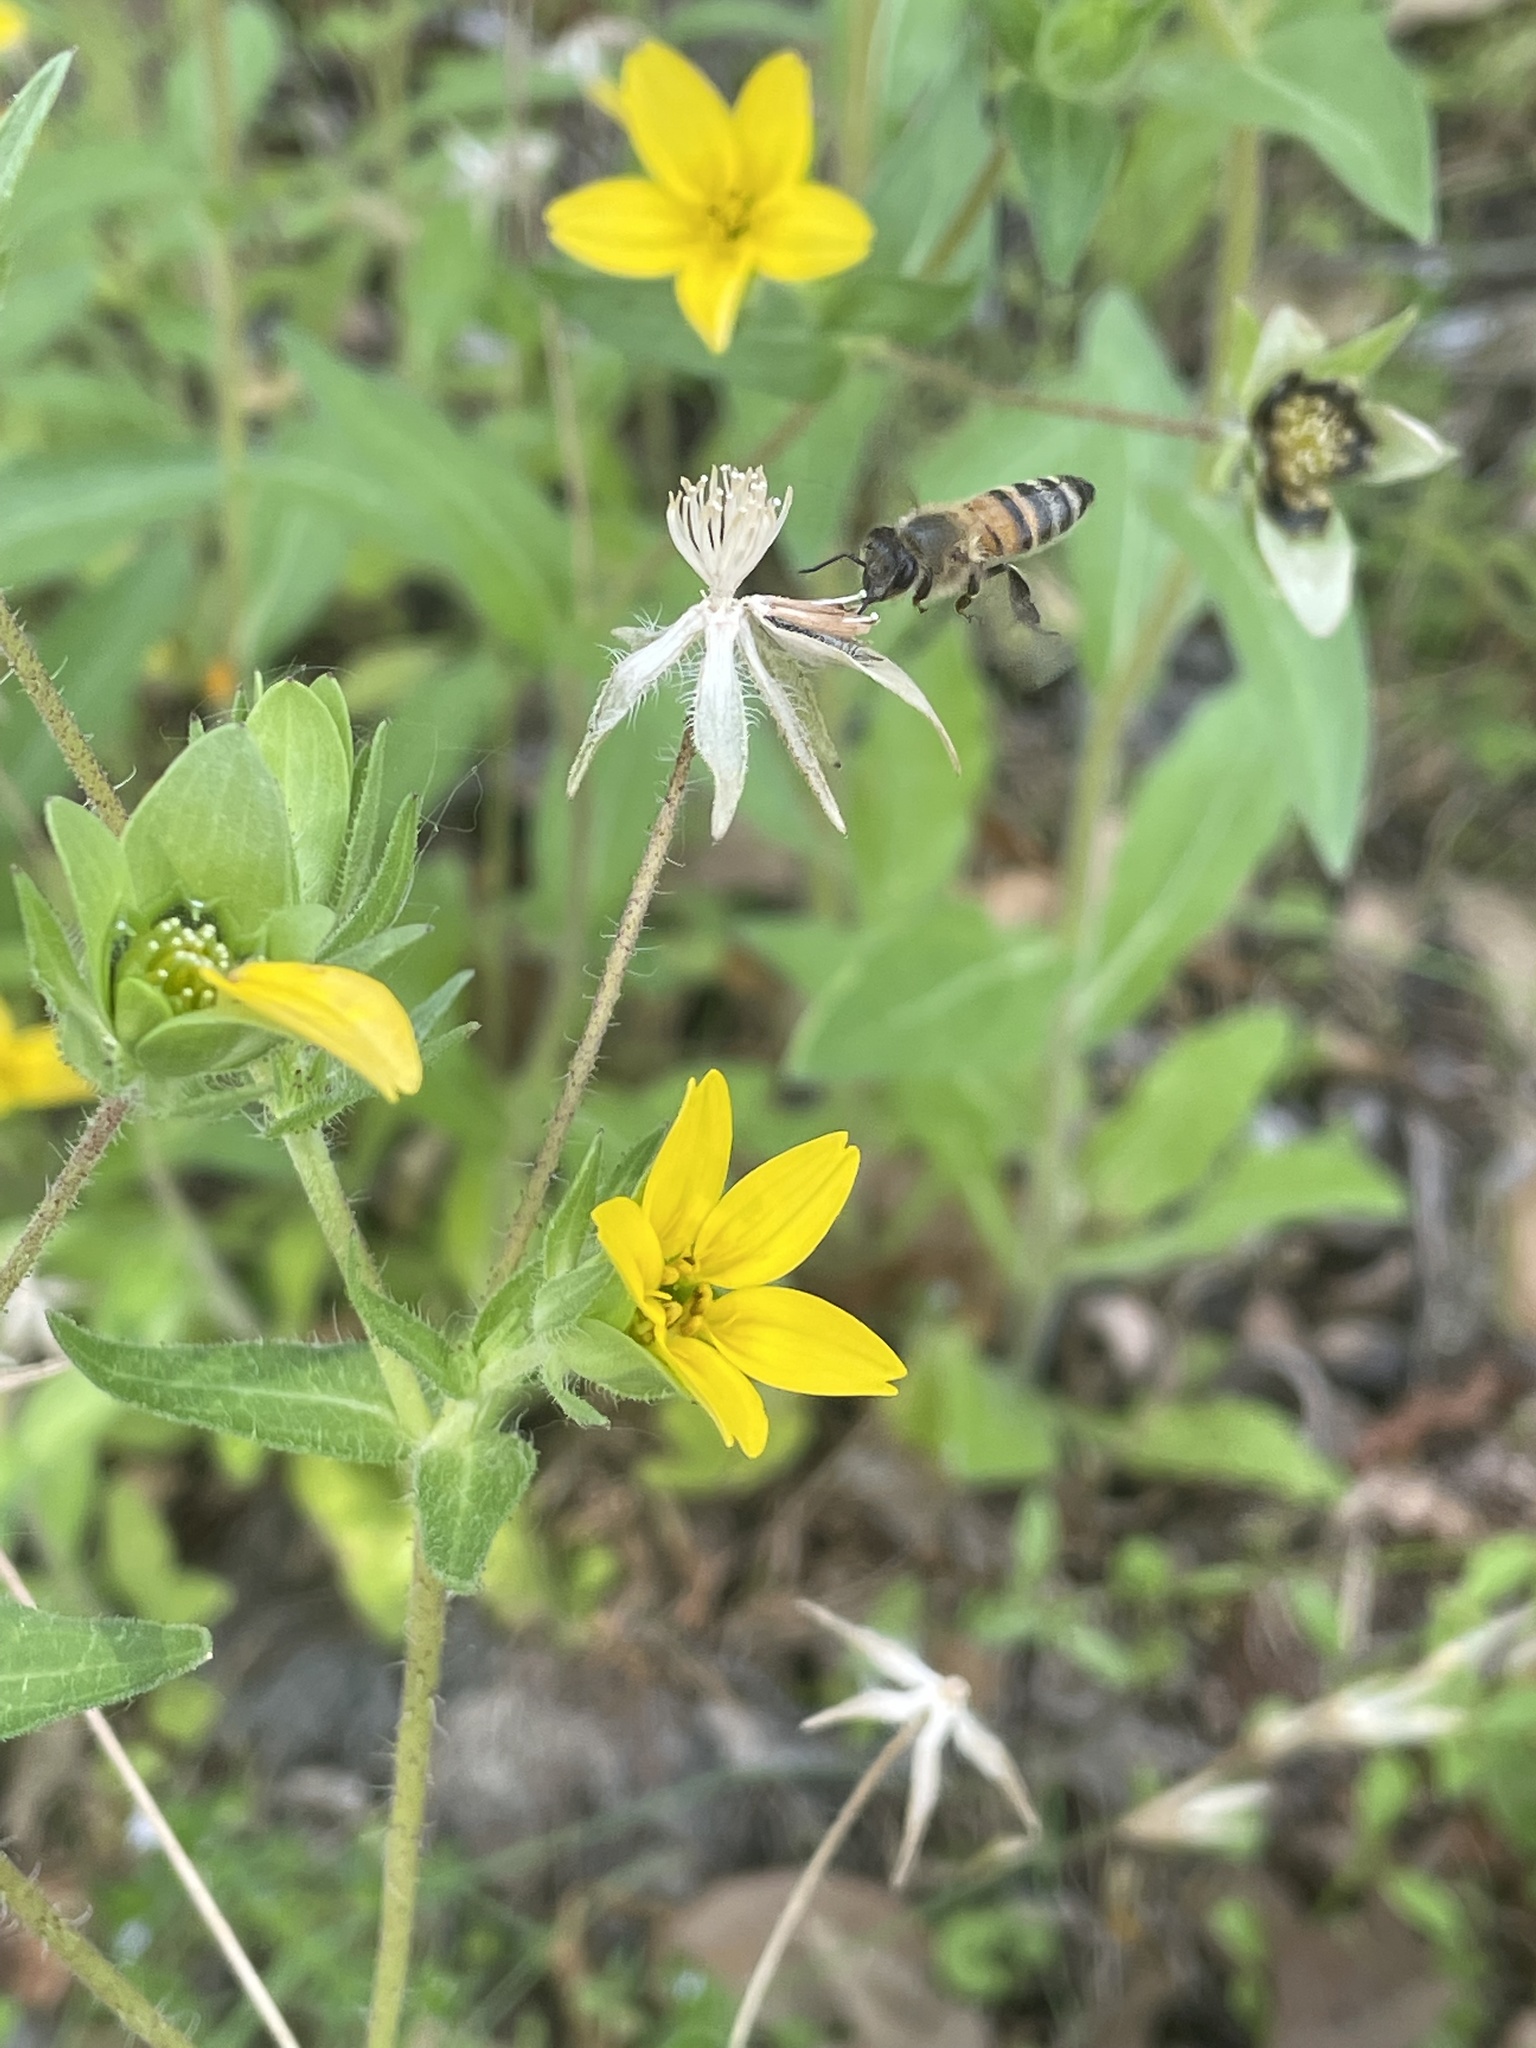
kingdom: Animalia
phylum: Arthropoda
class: Insecta
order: Hymenoptera
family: Apidae
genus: Apis
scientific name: Apis mellifera
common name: Honey bee
